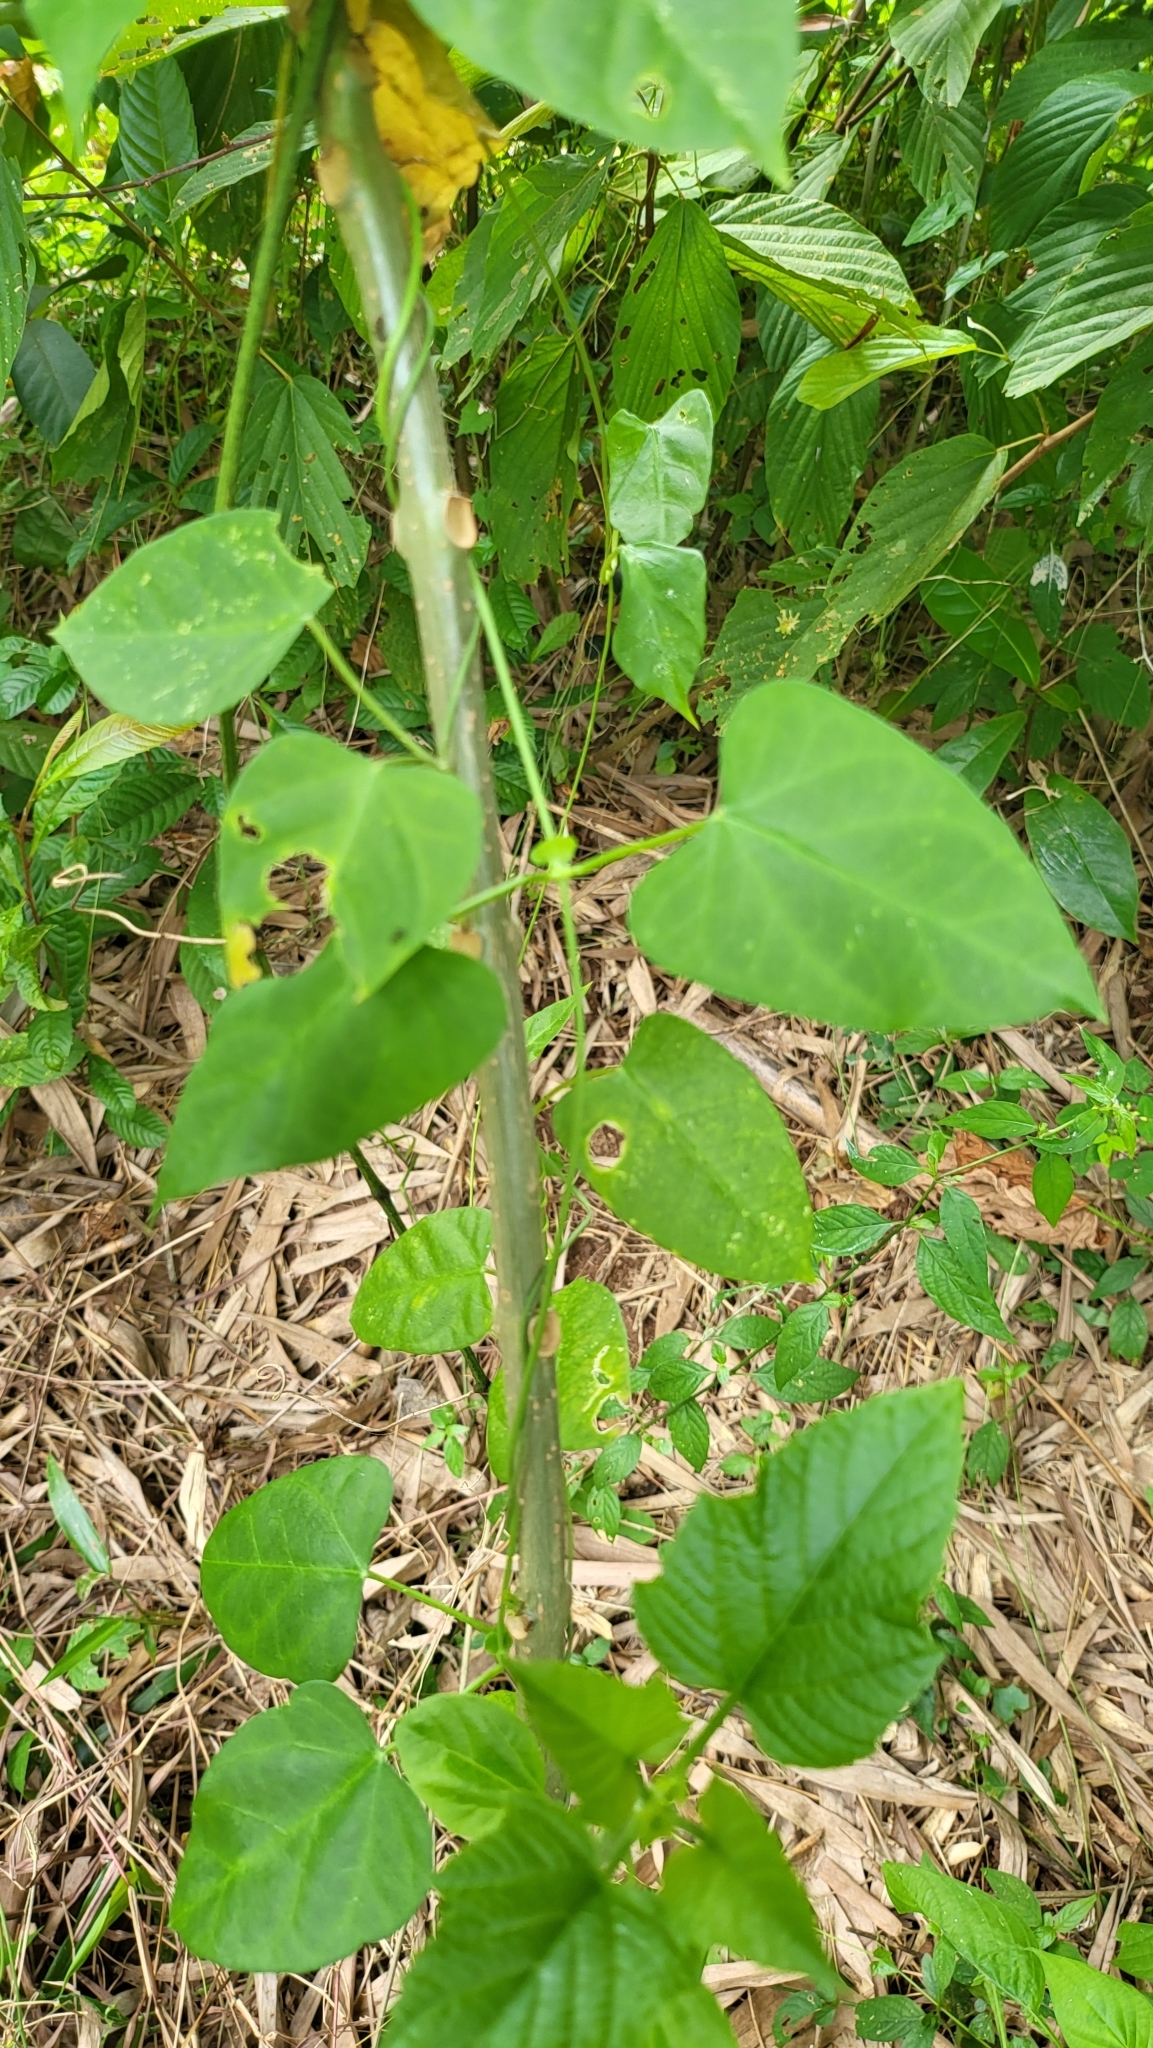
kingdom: Plantae
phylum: Tracheophyta
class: Magnoliopsida
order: Gentianales
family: Apocynaceae
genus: Cynanchum
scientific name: Cynanchum tunicatum
